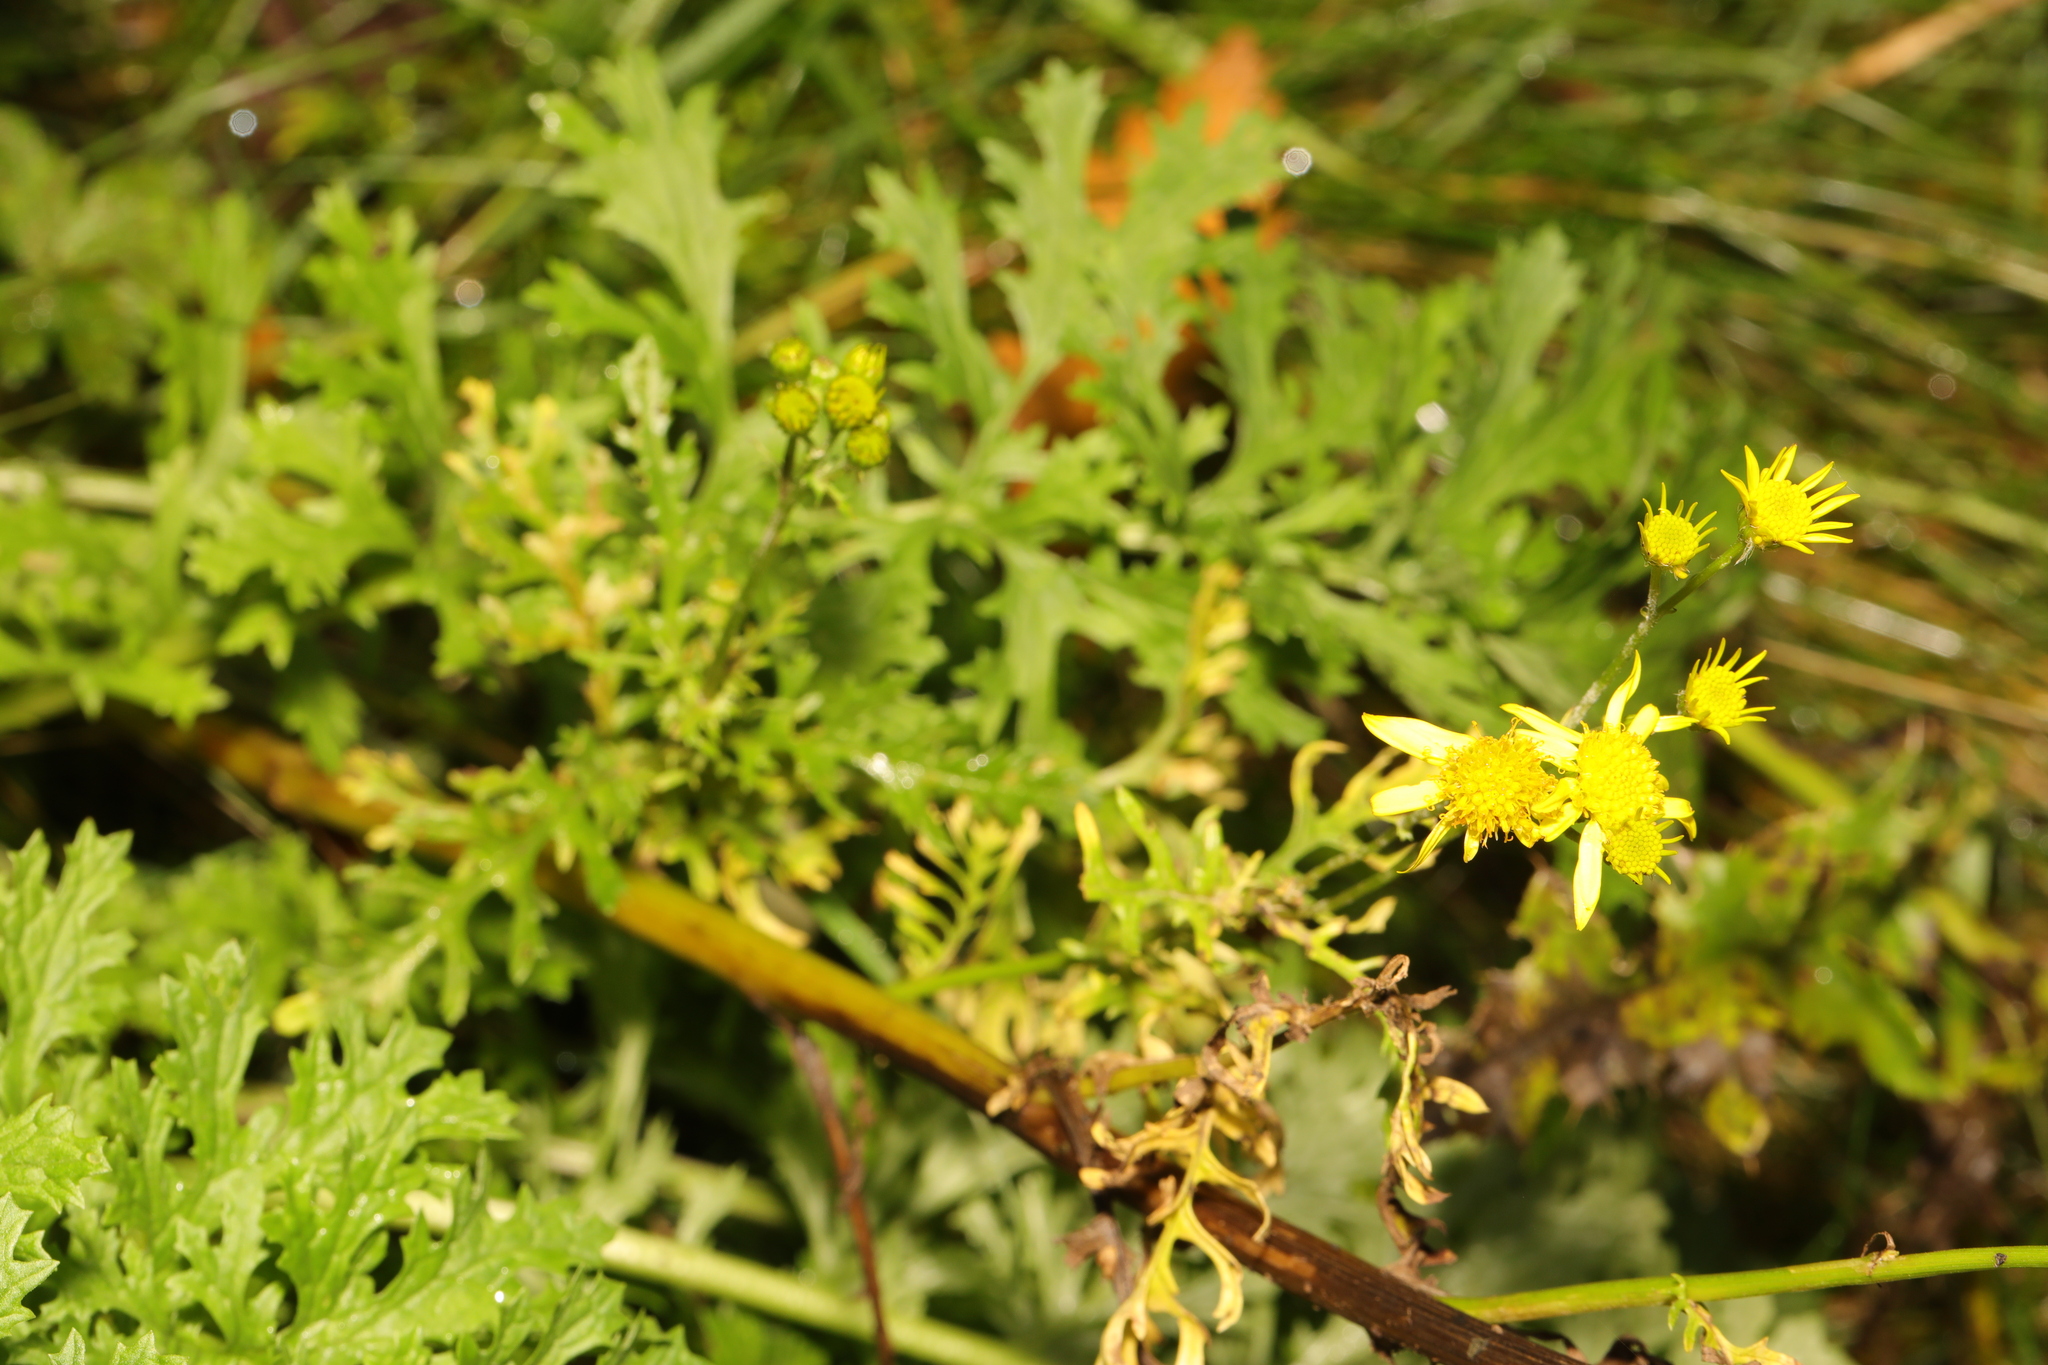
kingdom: Plantae
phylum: Tracheophyta
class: Magnoliopsida
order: Asterales
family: Asteraceae
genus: Jacobaea
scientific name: Jacobaea vulgaris
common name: Stinking willie
